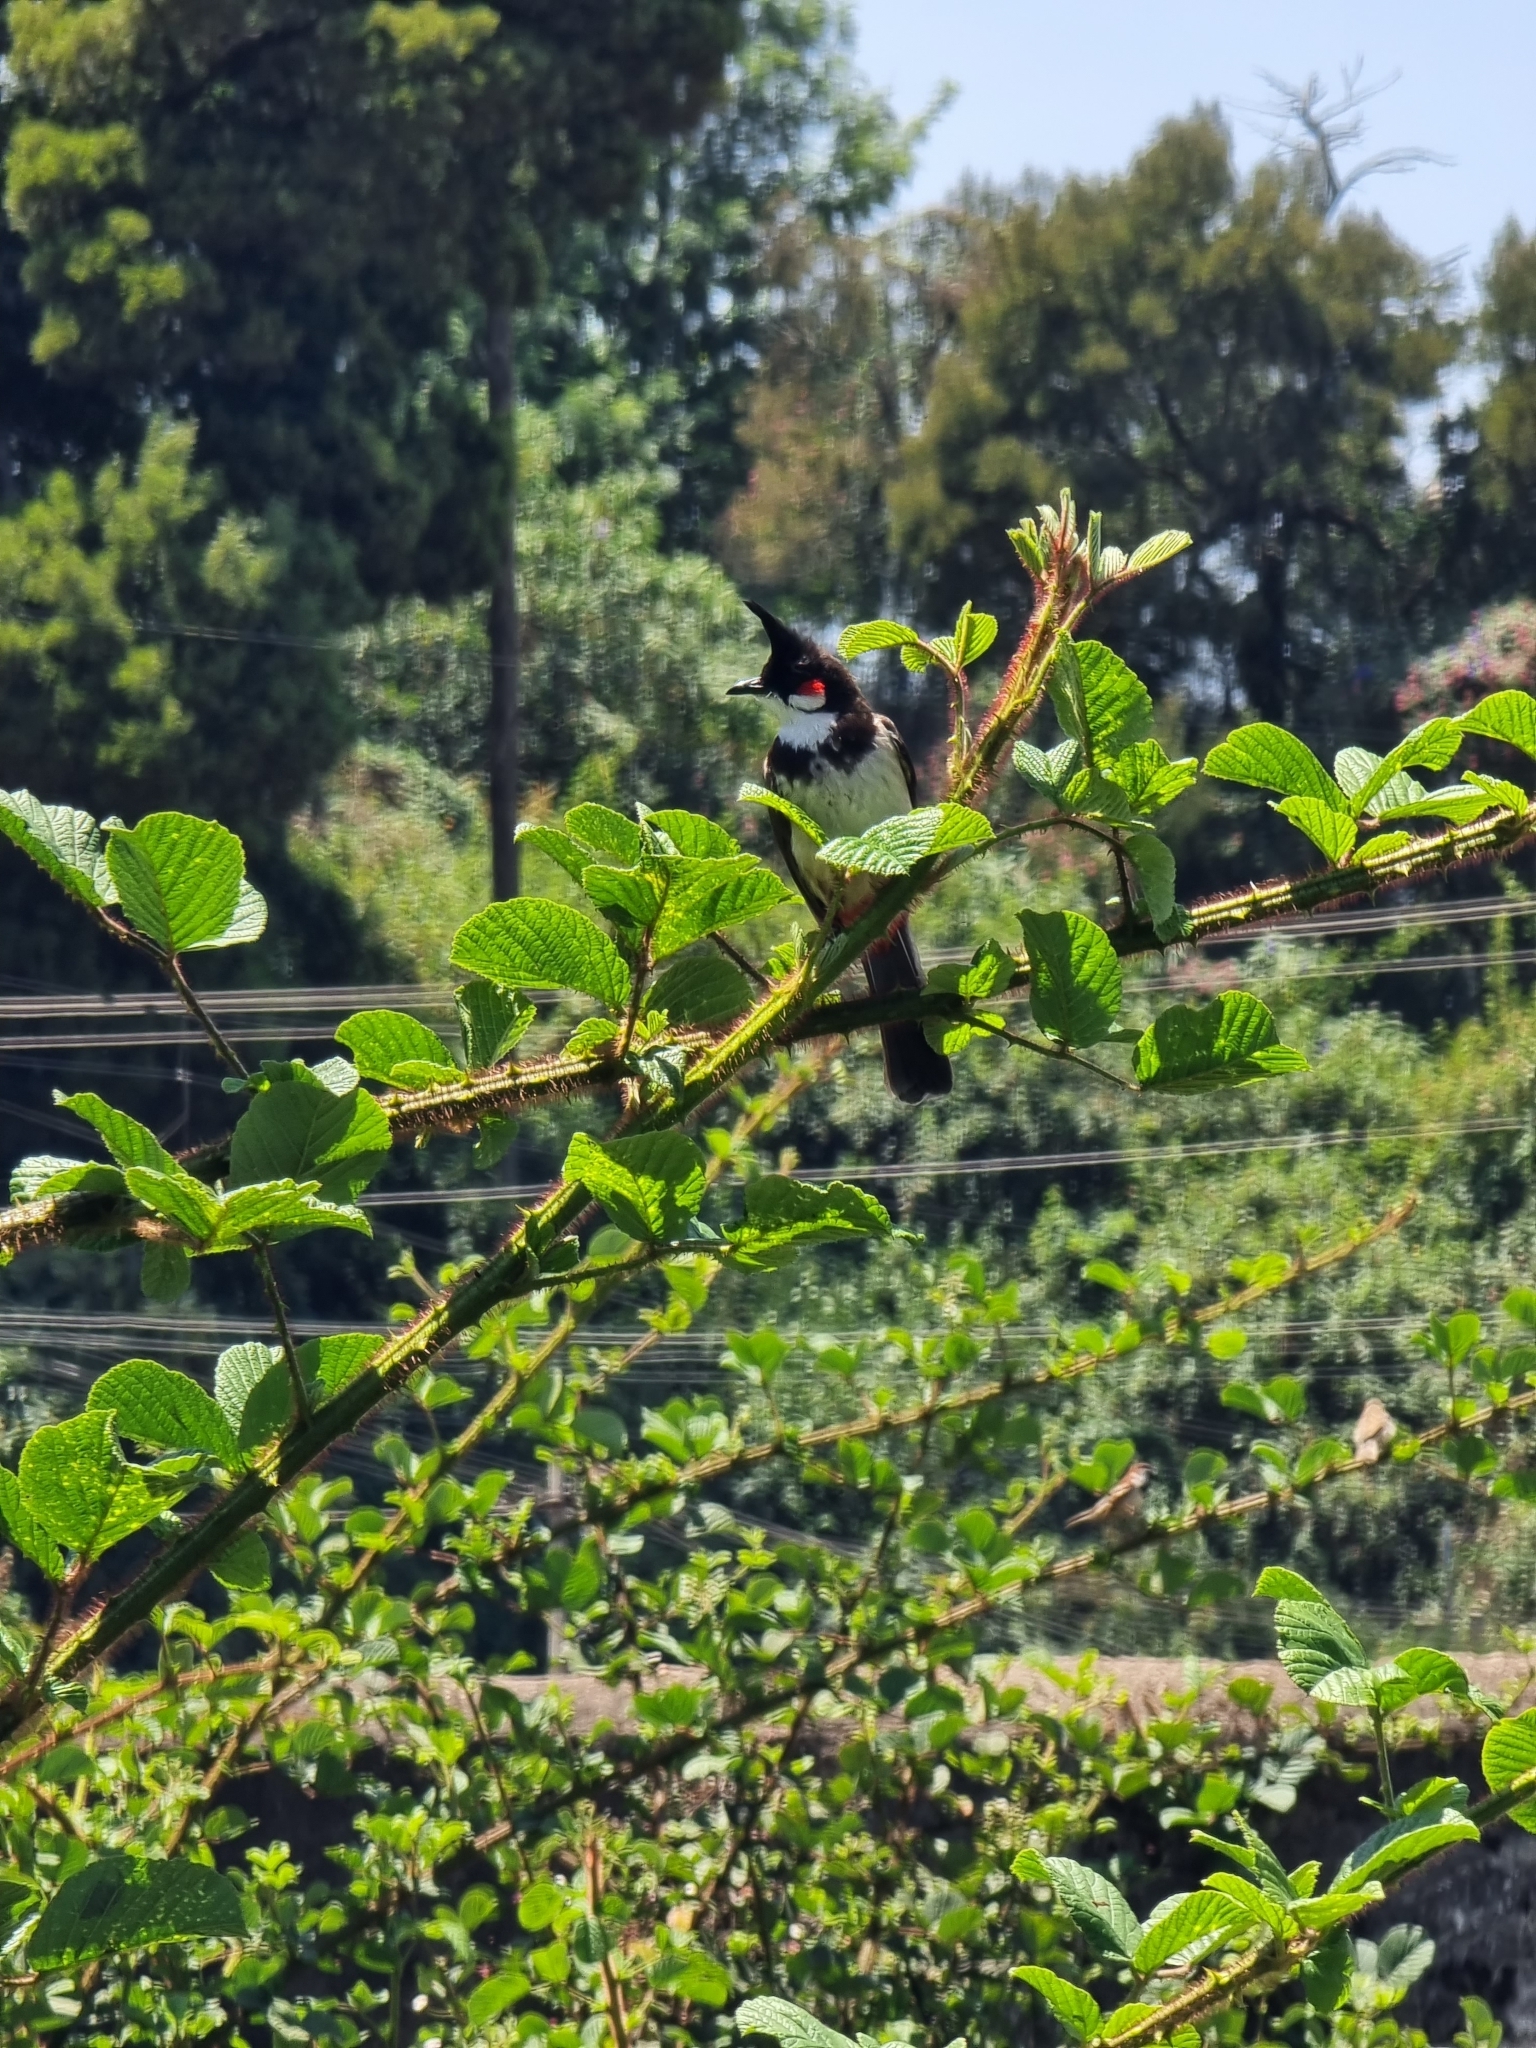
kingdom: Animalia
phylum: Chordata
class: Aves
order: Passeriformes
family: Pycnonotidae
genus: Pycnonotus
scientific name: Pycnonotus jocosus
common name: Red-whiskered bulbul
